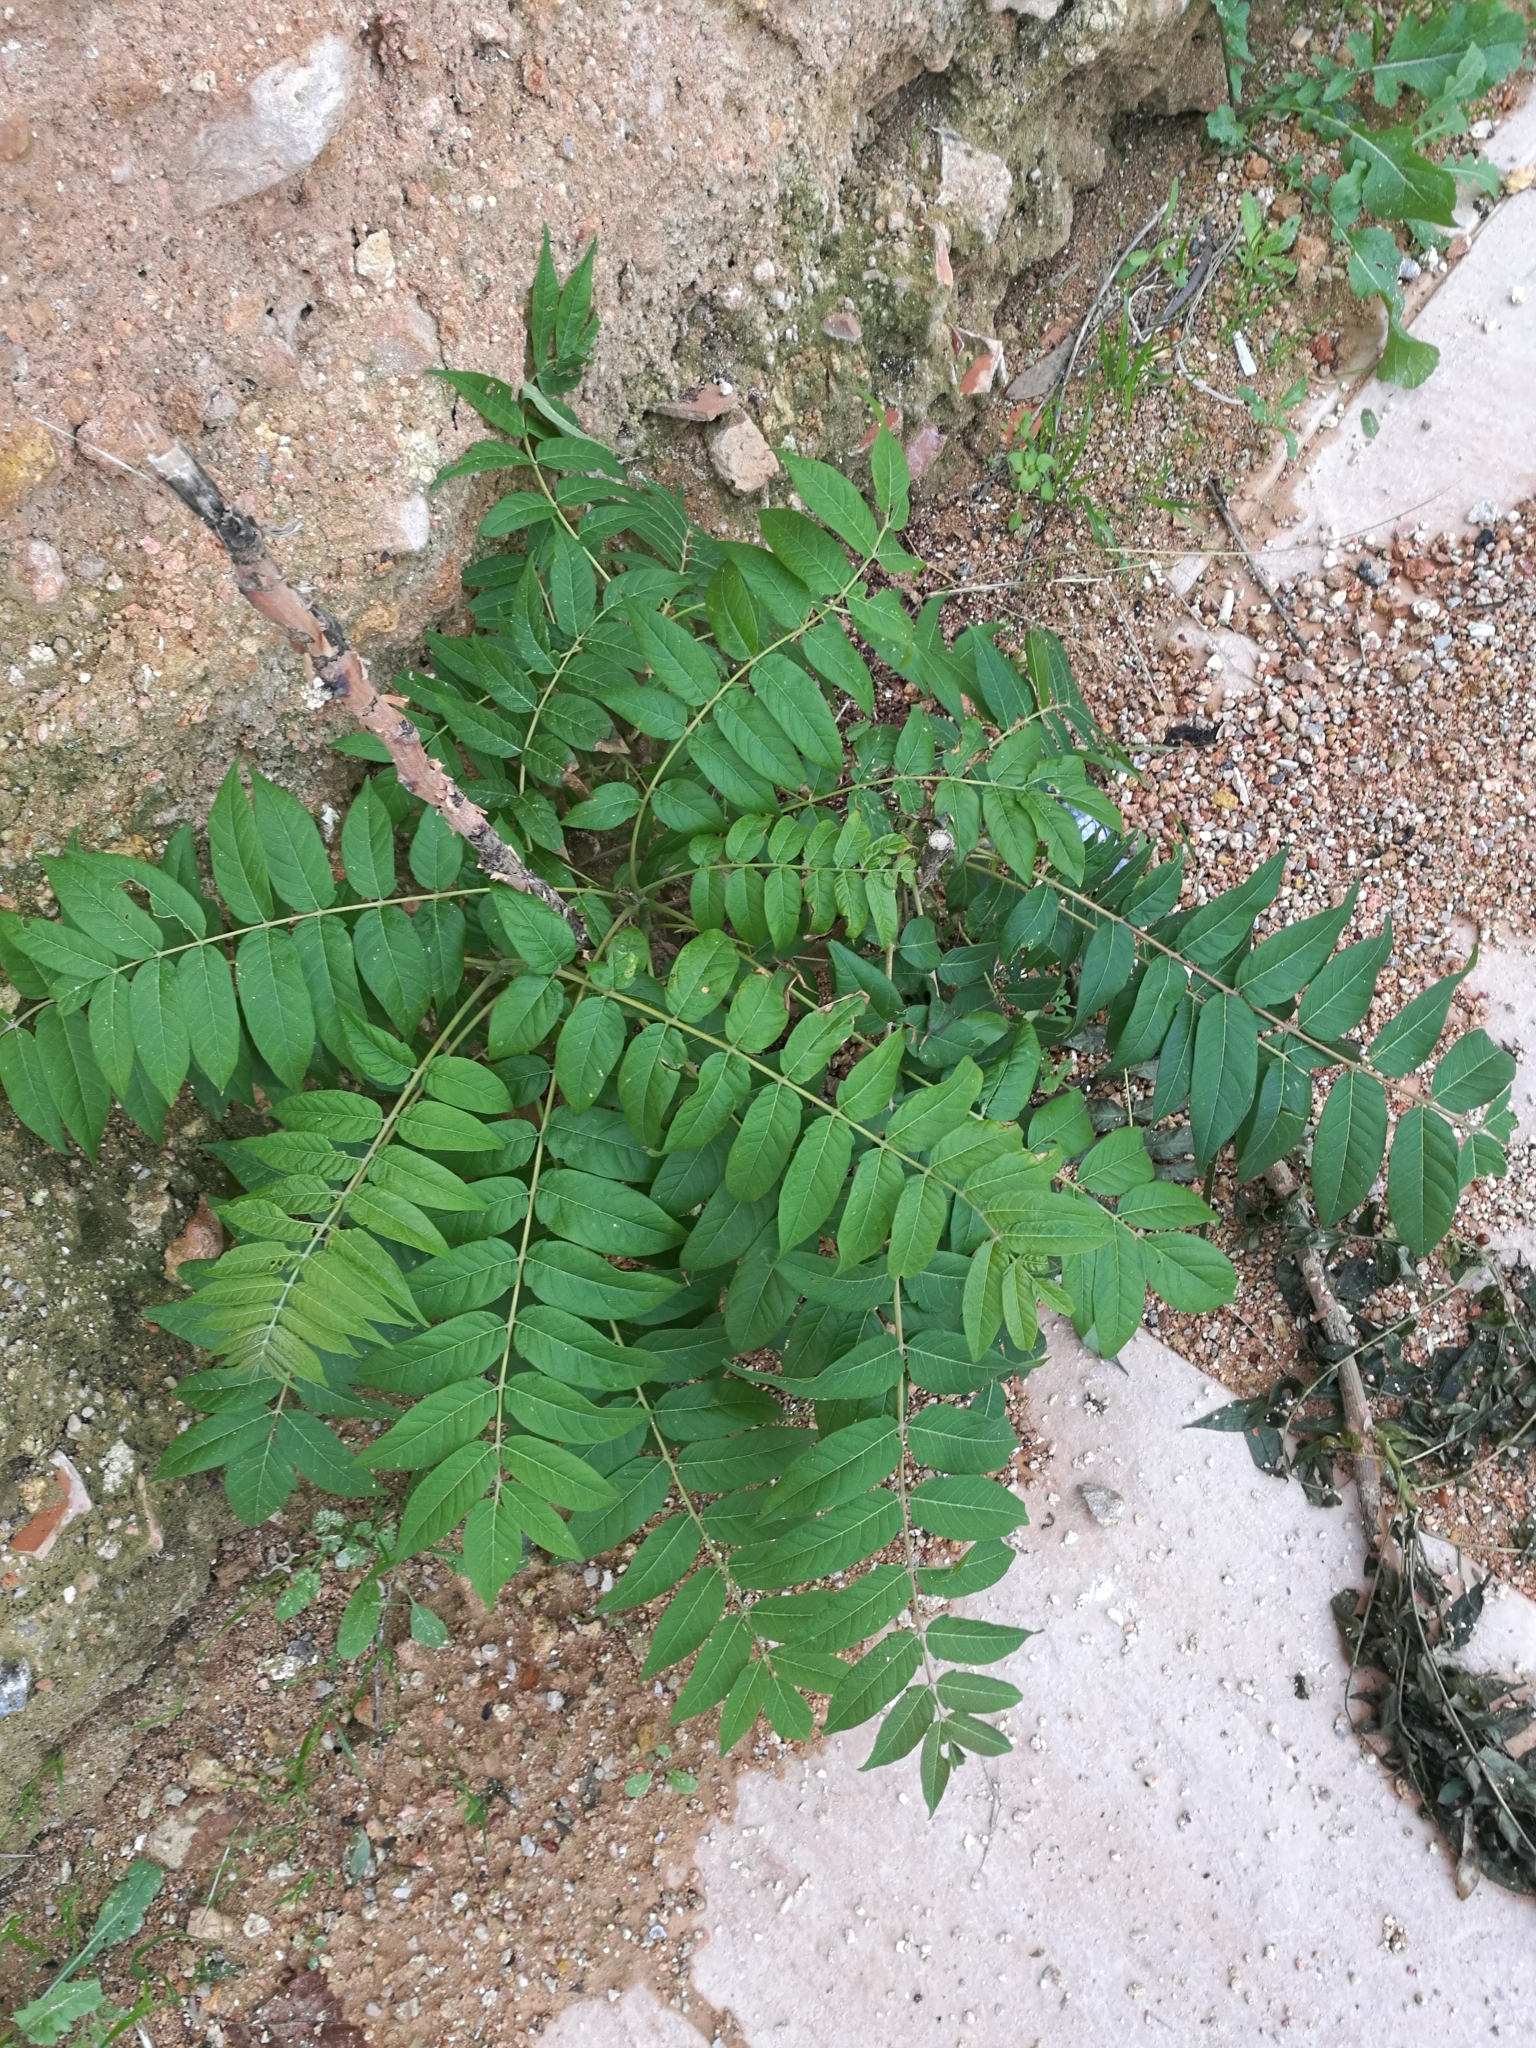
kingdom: Plantae
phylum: Tracheophyta
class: Magnoliopsida
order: Sapindales
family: Simaroubaceae
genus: Ailanthus
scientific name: Ailanthus altissima
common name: Tree-of-heaven
